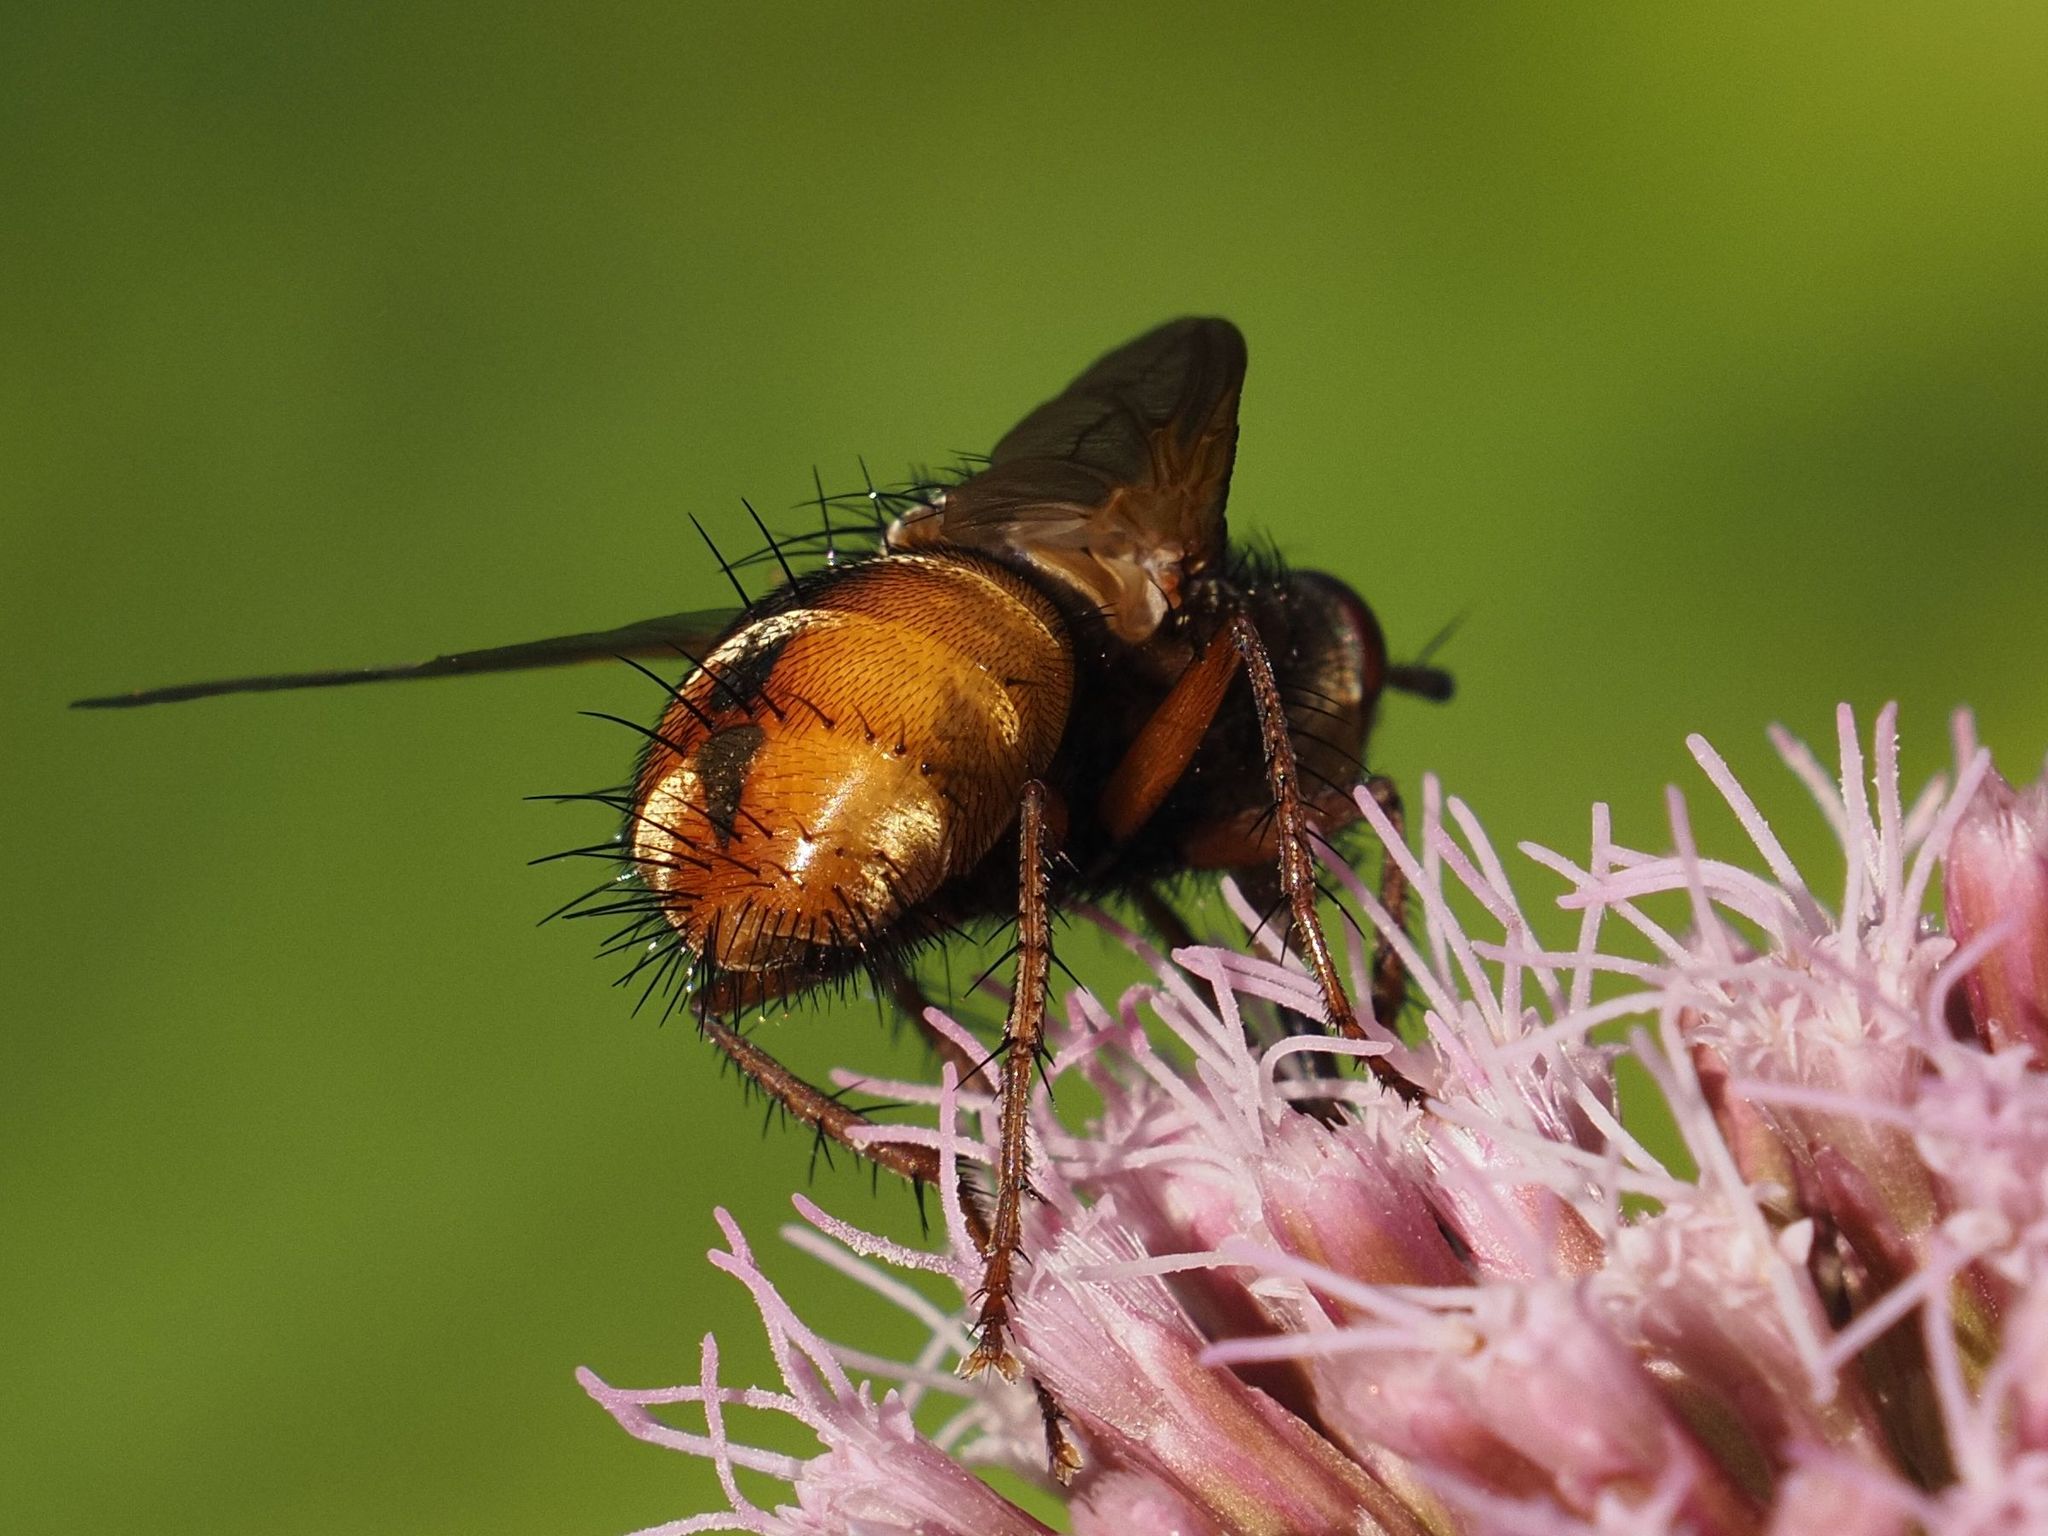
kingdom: Animalia
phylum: Arthropoda
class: Insecta
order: Diptera
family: Tachinidae
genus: Tachina
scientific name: Tachina fera
